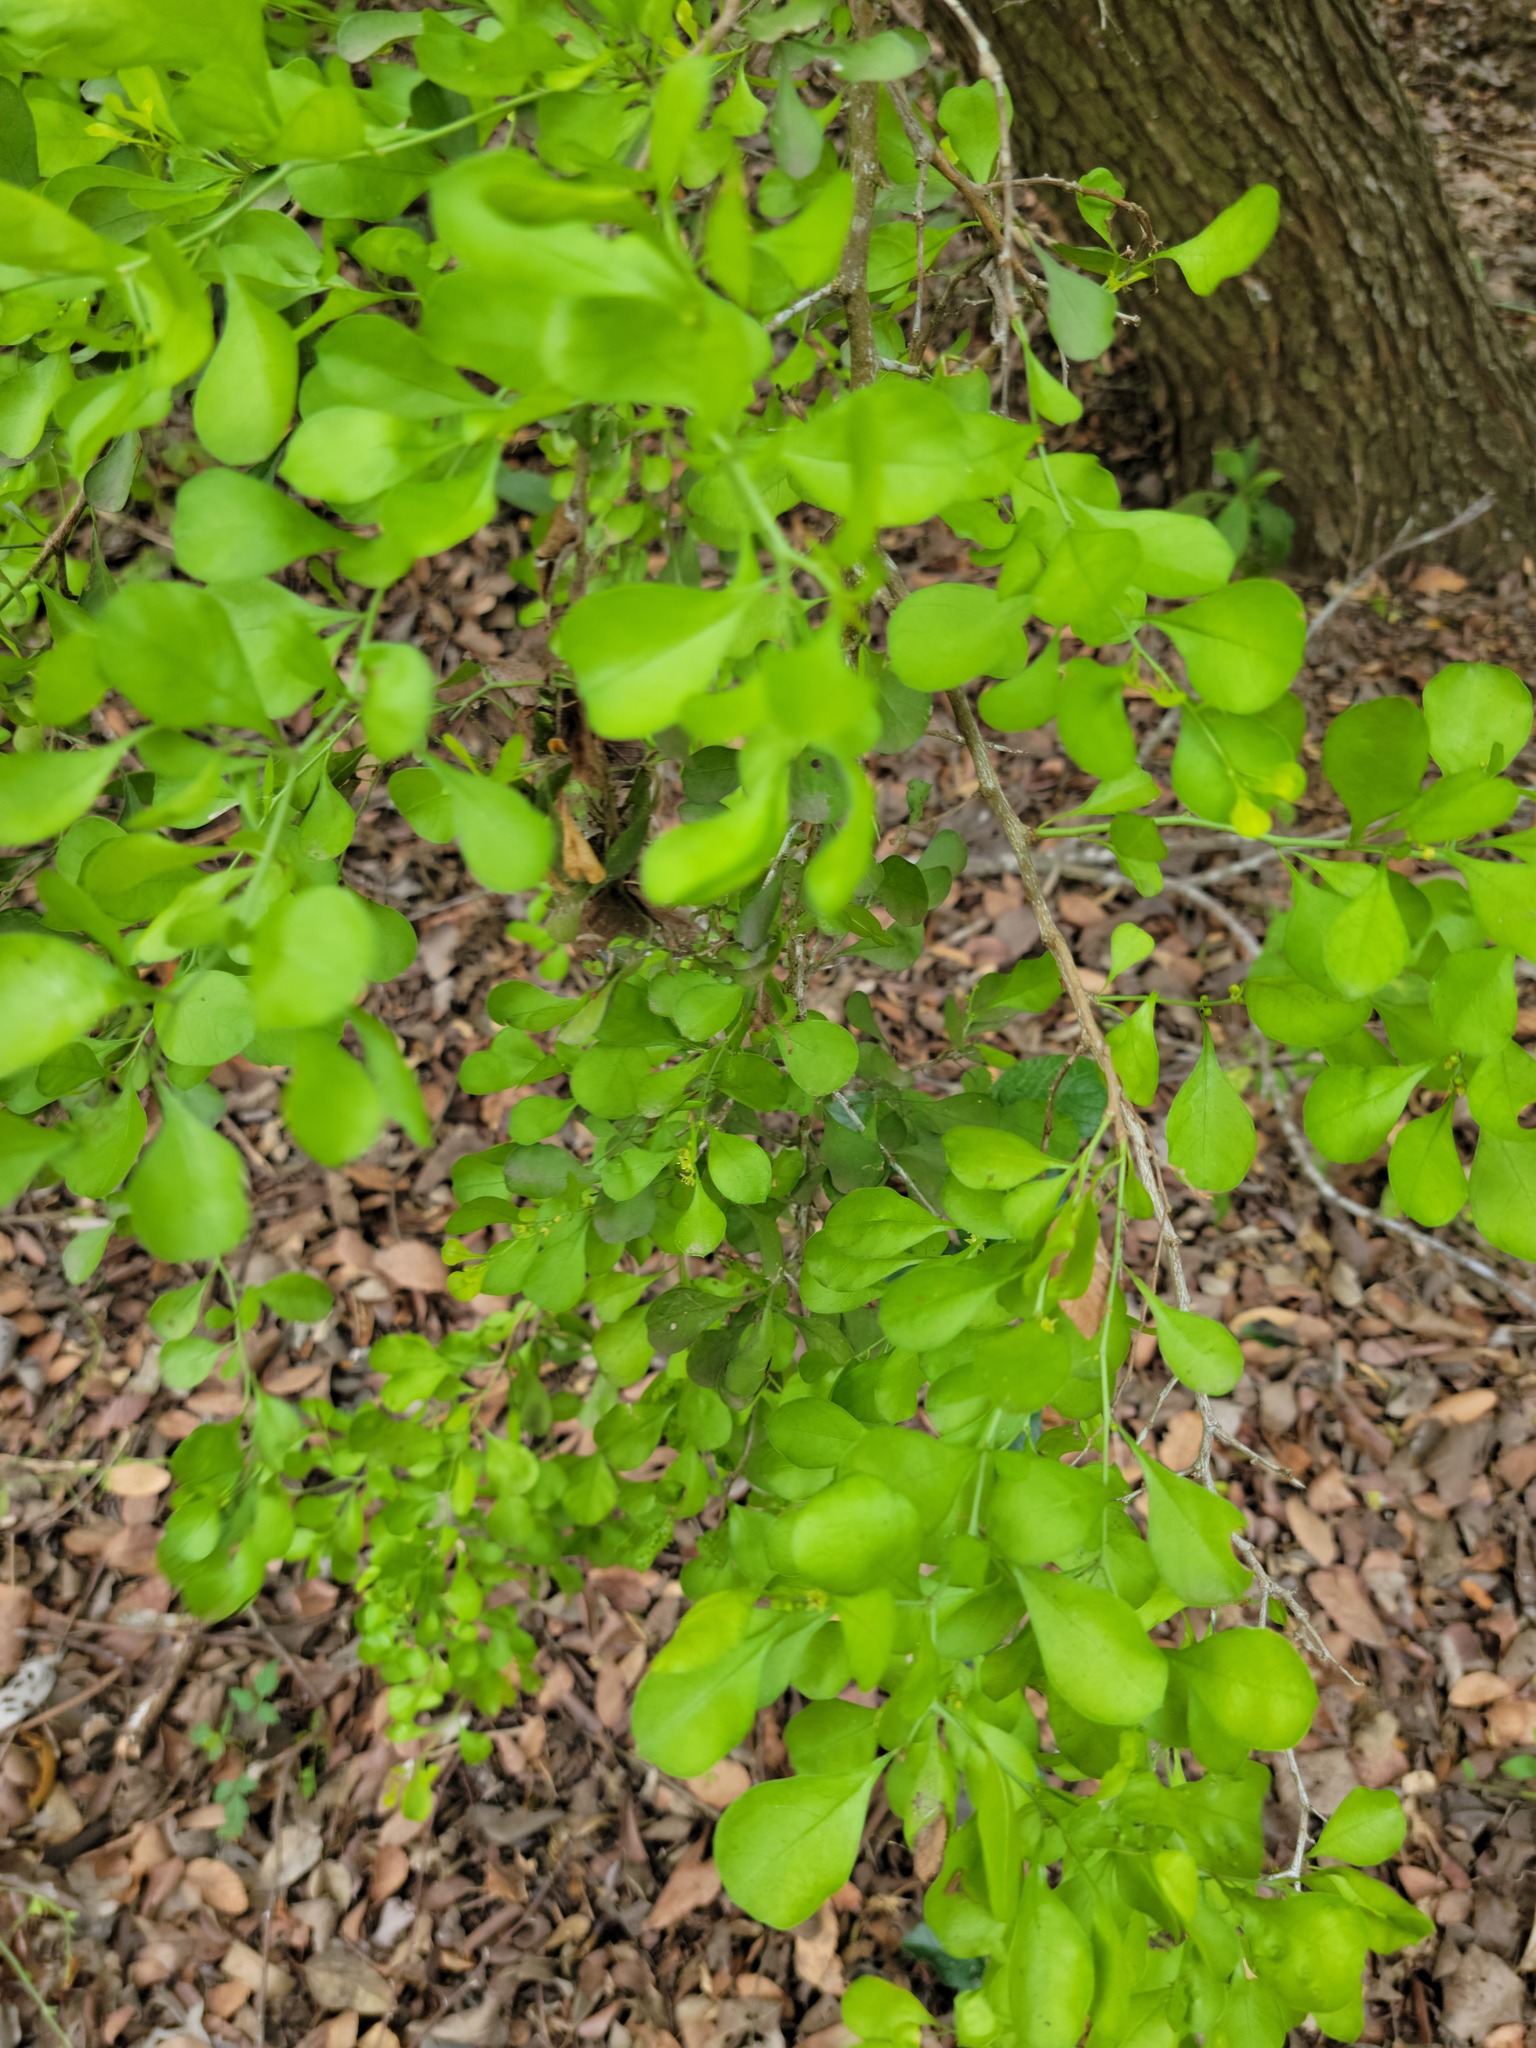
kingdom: Plantae
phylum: Tracheophyta
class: Magnoliopsida
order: Rosales
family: Rhamnaceae
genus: Condalia
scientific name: Condalia hookeri
